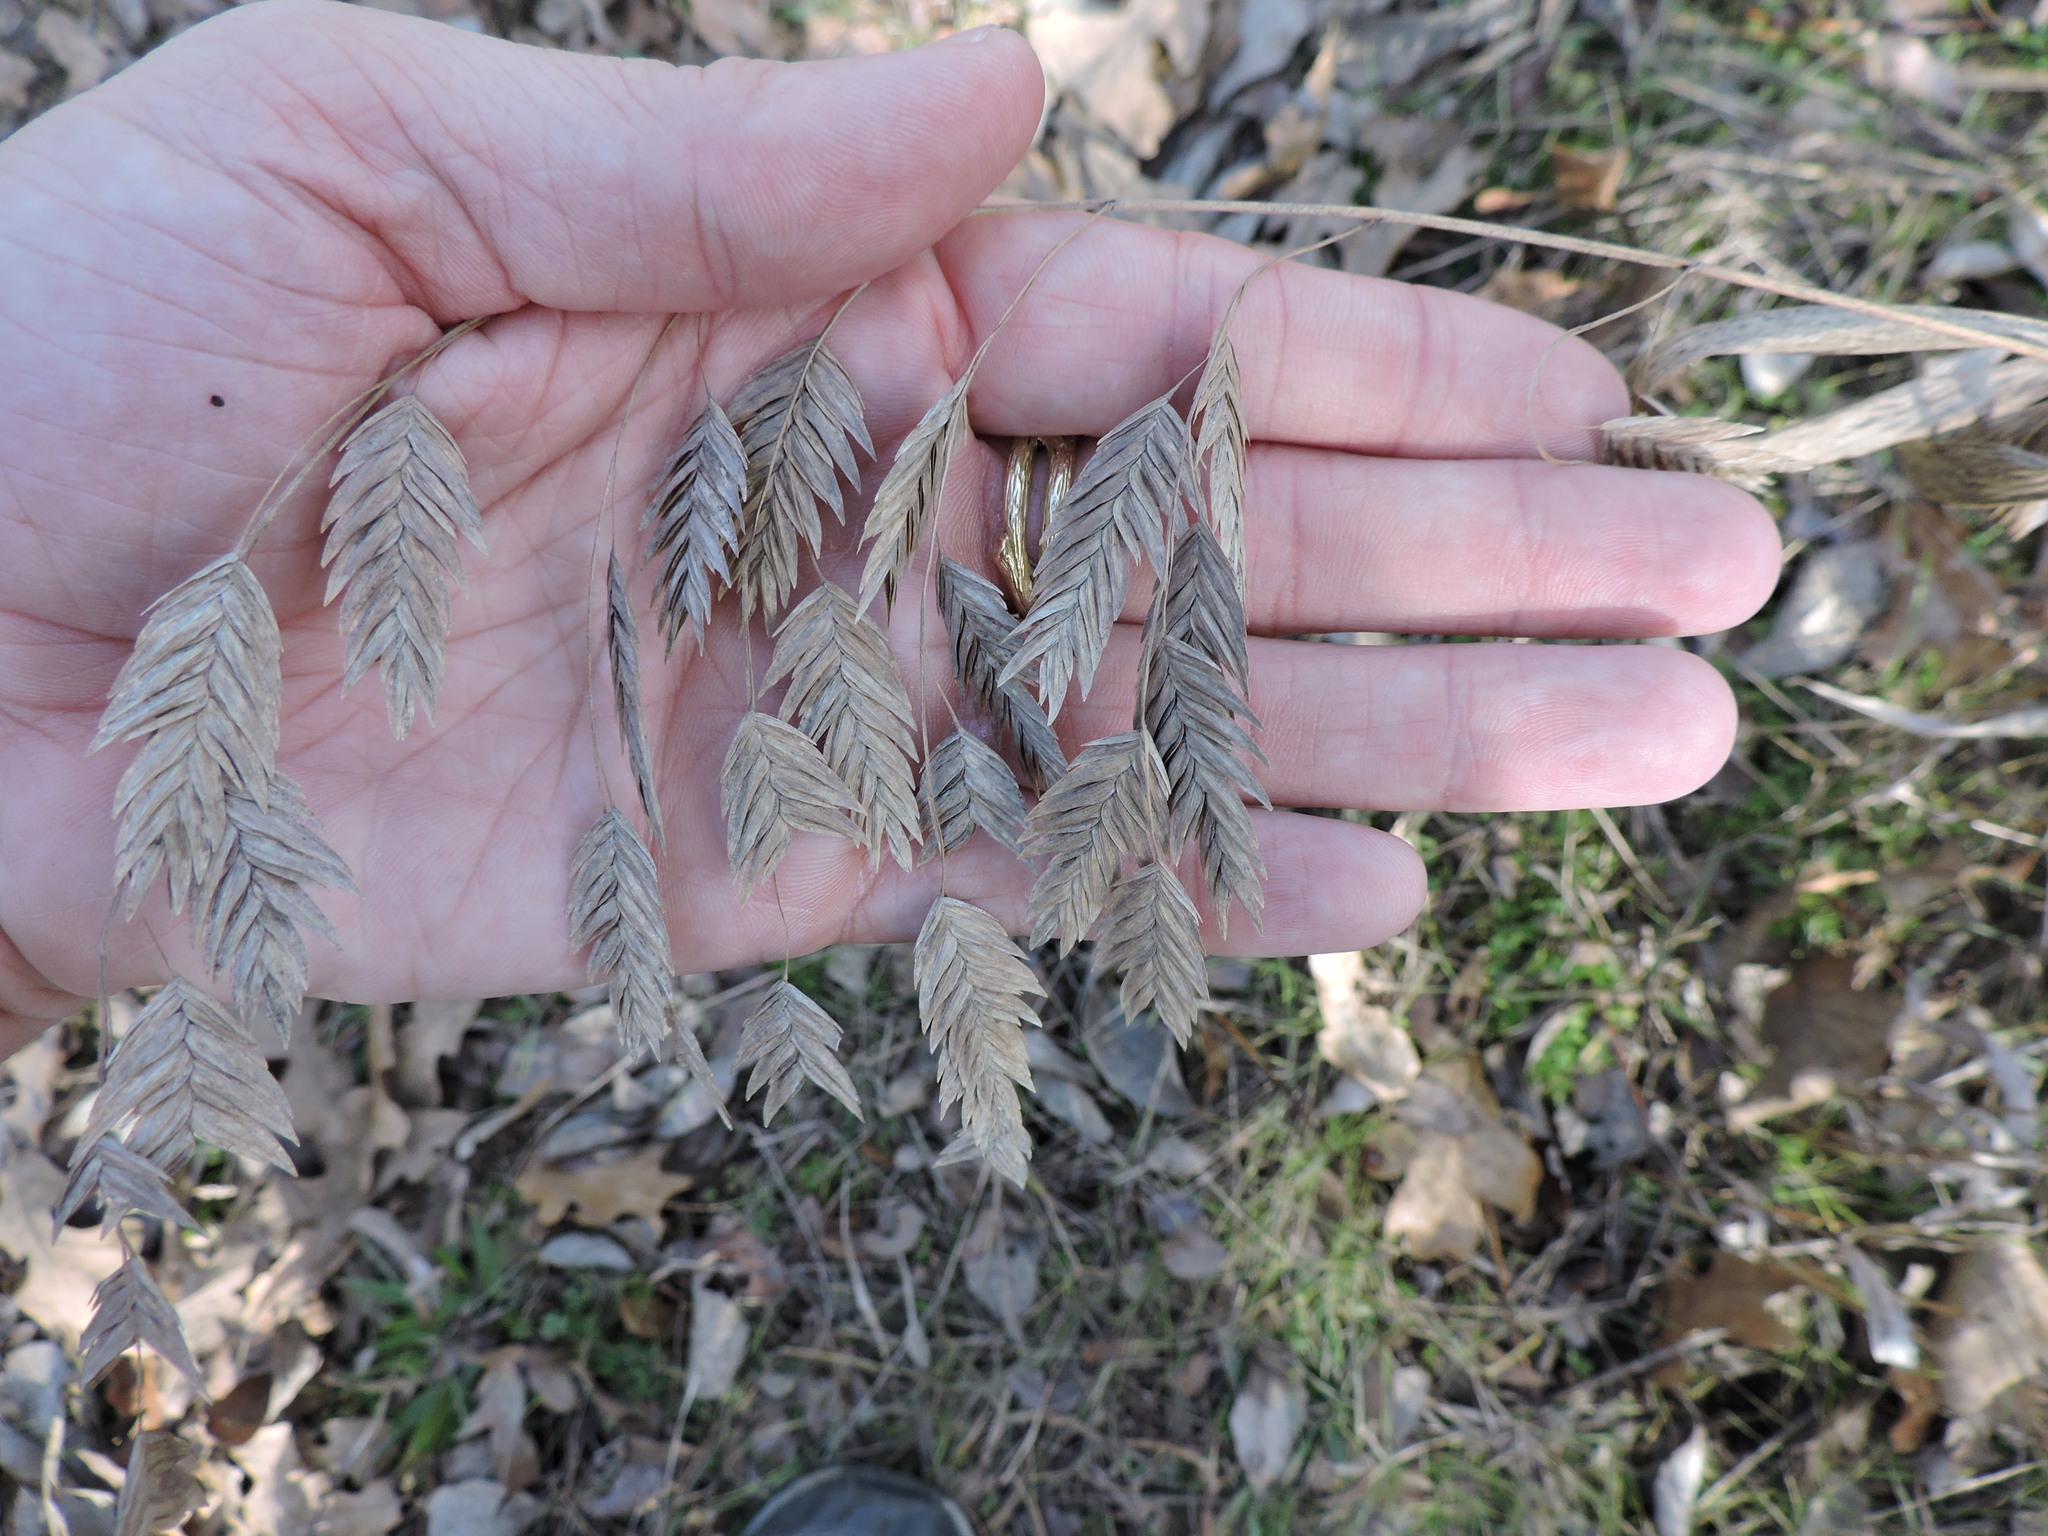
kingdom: Plantae
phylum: Tracheophyta
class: Liliopsida
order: Poales
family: Poaceae
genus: Chasmanthium
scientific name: Chasmanthium latifolium
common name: Broad-leaved chasmanthium
